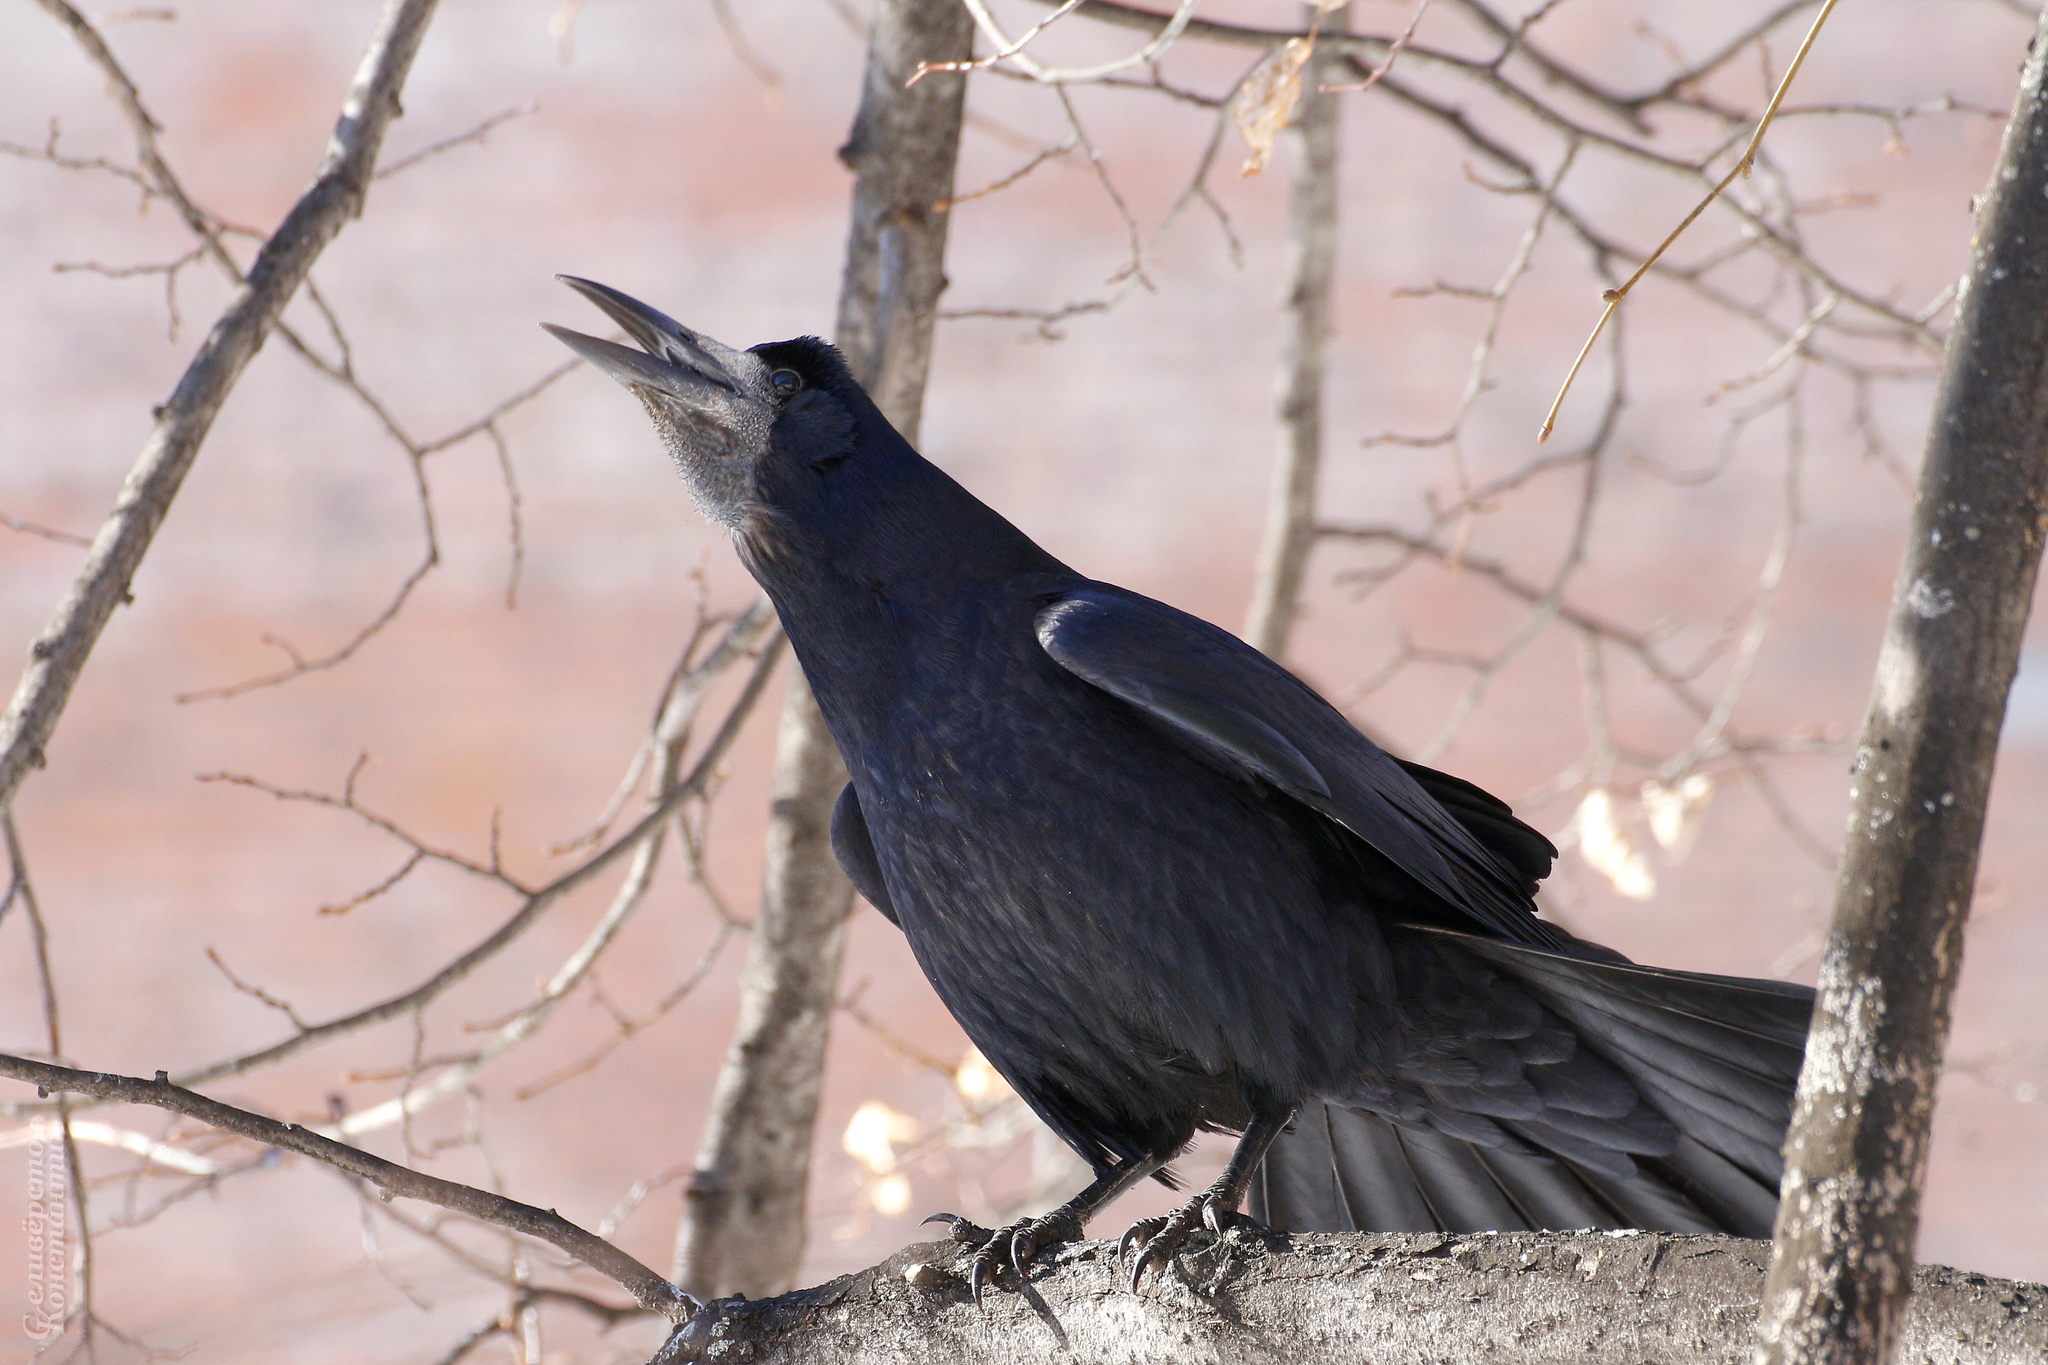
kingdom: Animalia
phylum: Chordata
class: Aves
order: Passeriformes
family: Corvidae
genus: Corvus
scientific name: Corvus frugilegus
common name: Rook
